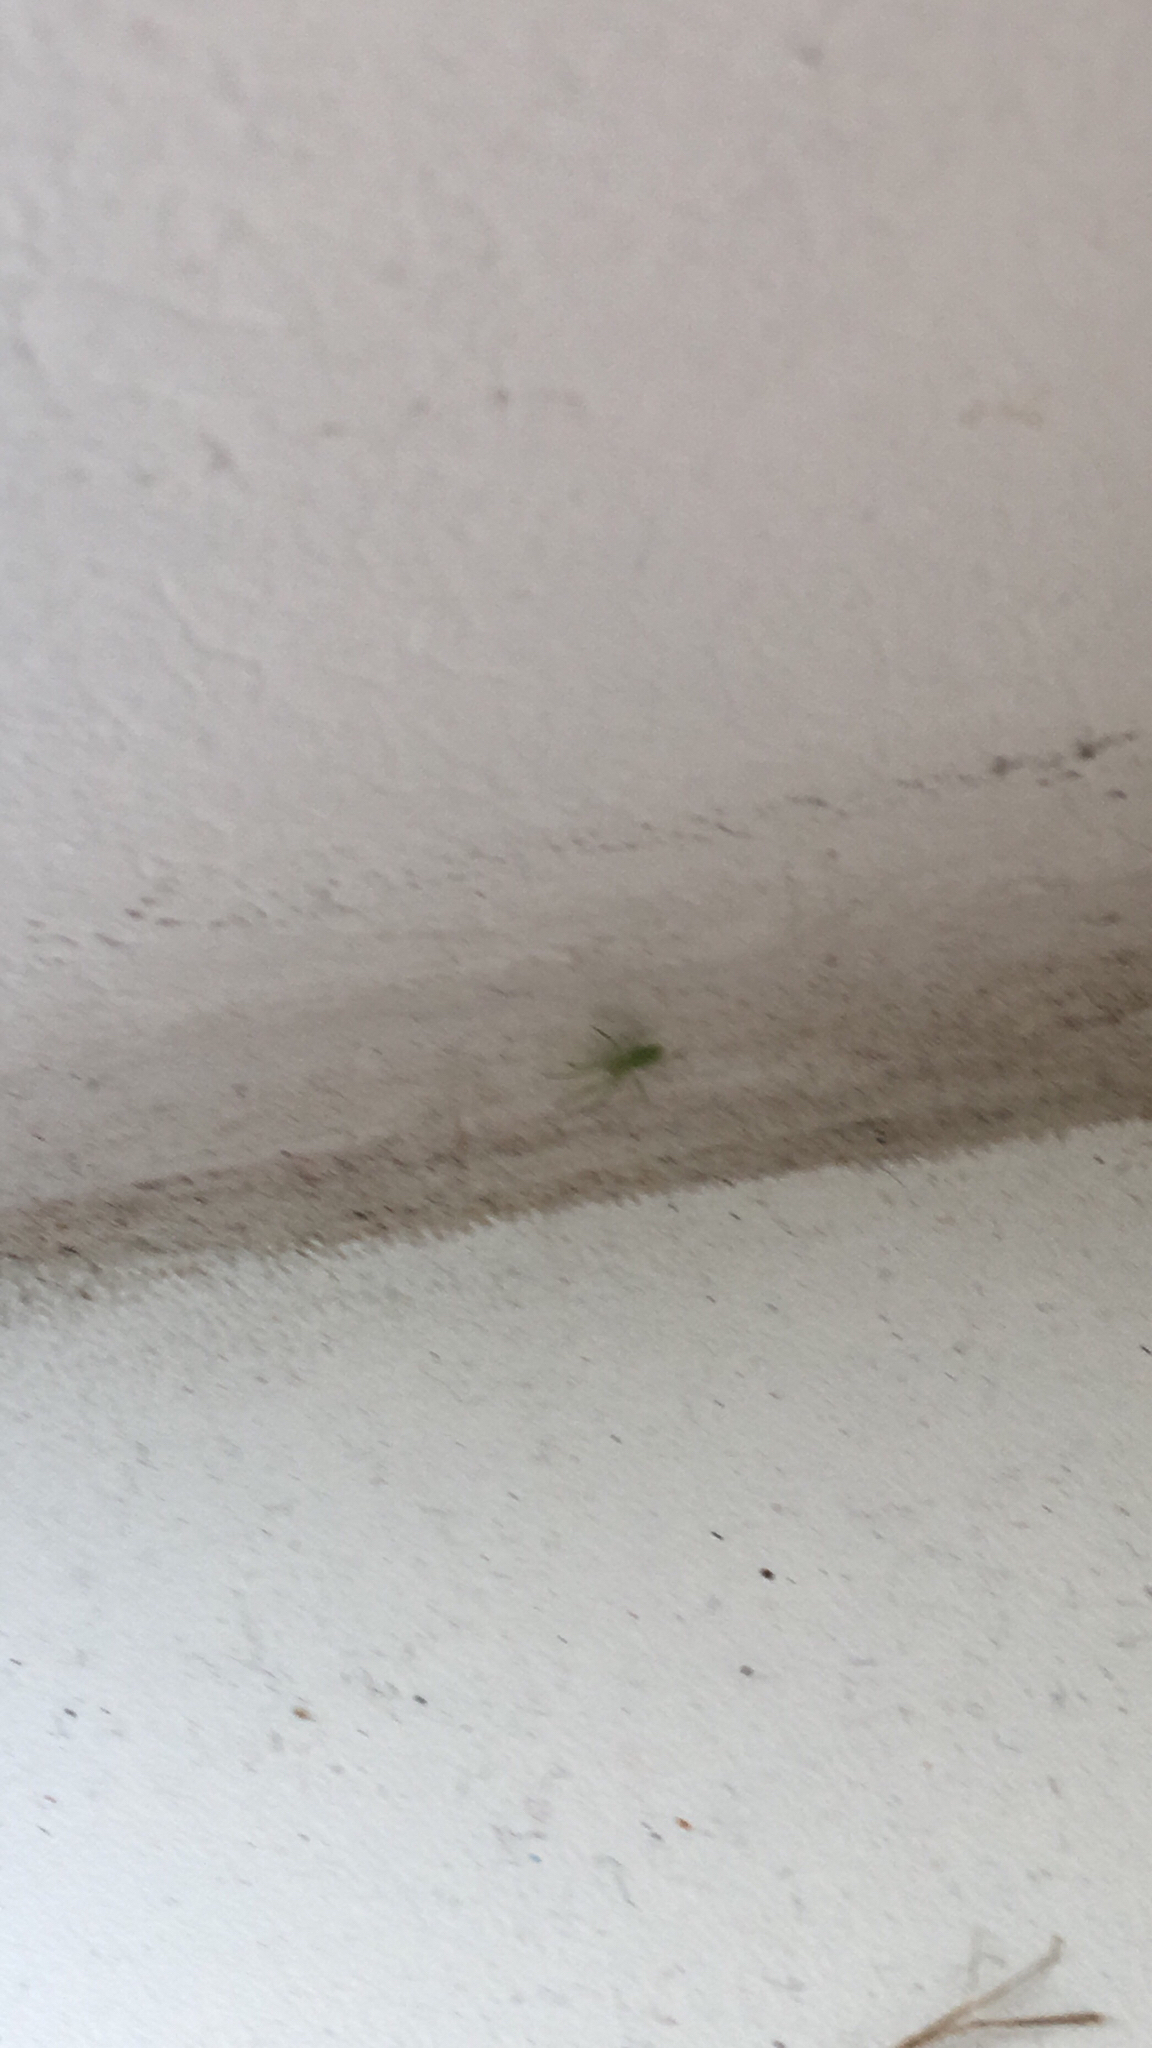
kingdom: Animalia
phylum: Arthropoda
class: Arachnida
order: Araneae
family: Dictynidae
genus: Nigma
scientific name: Nigma walckenaeri
